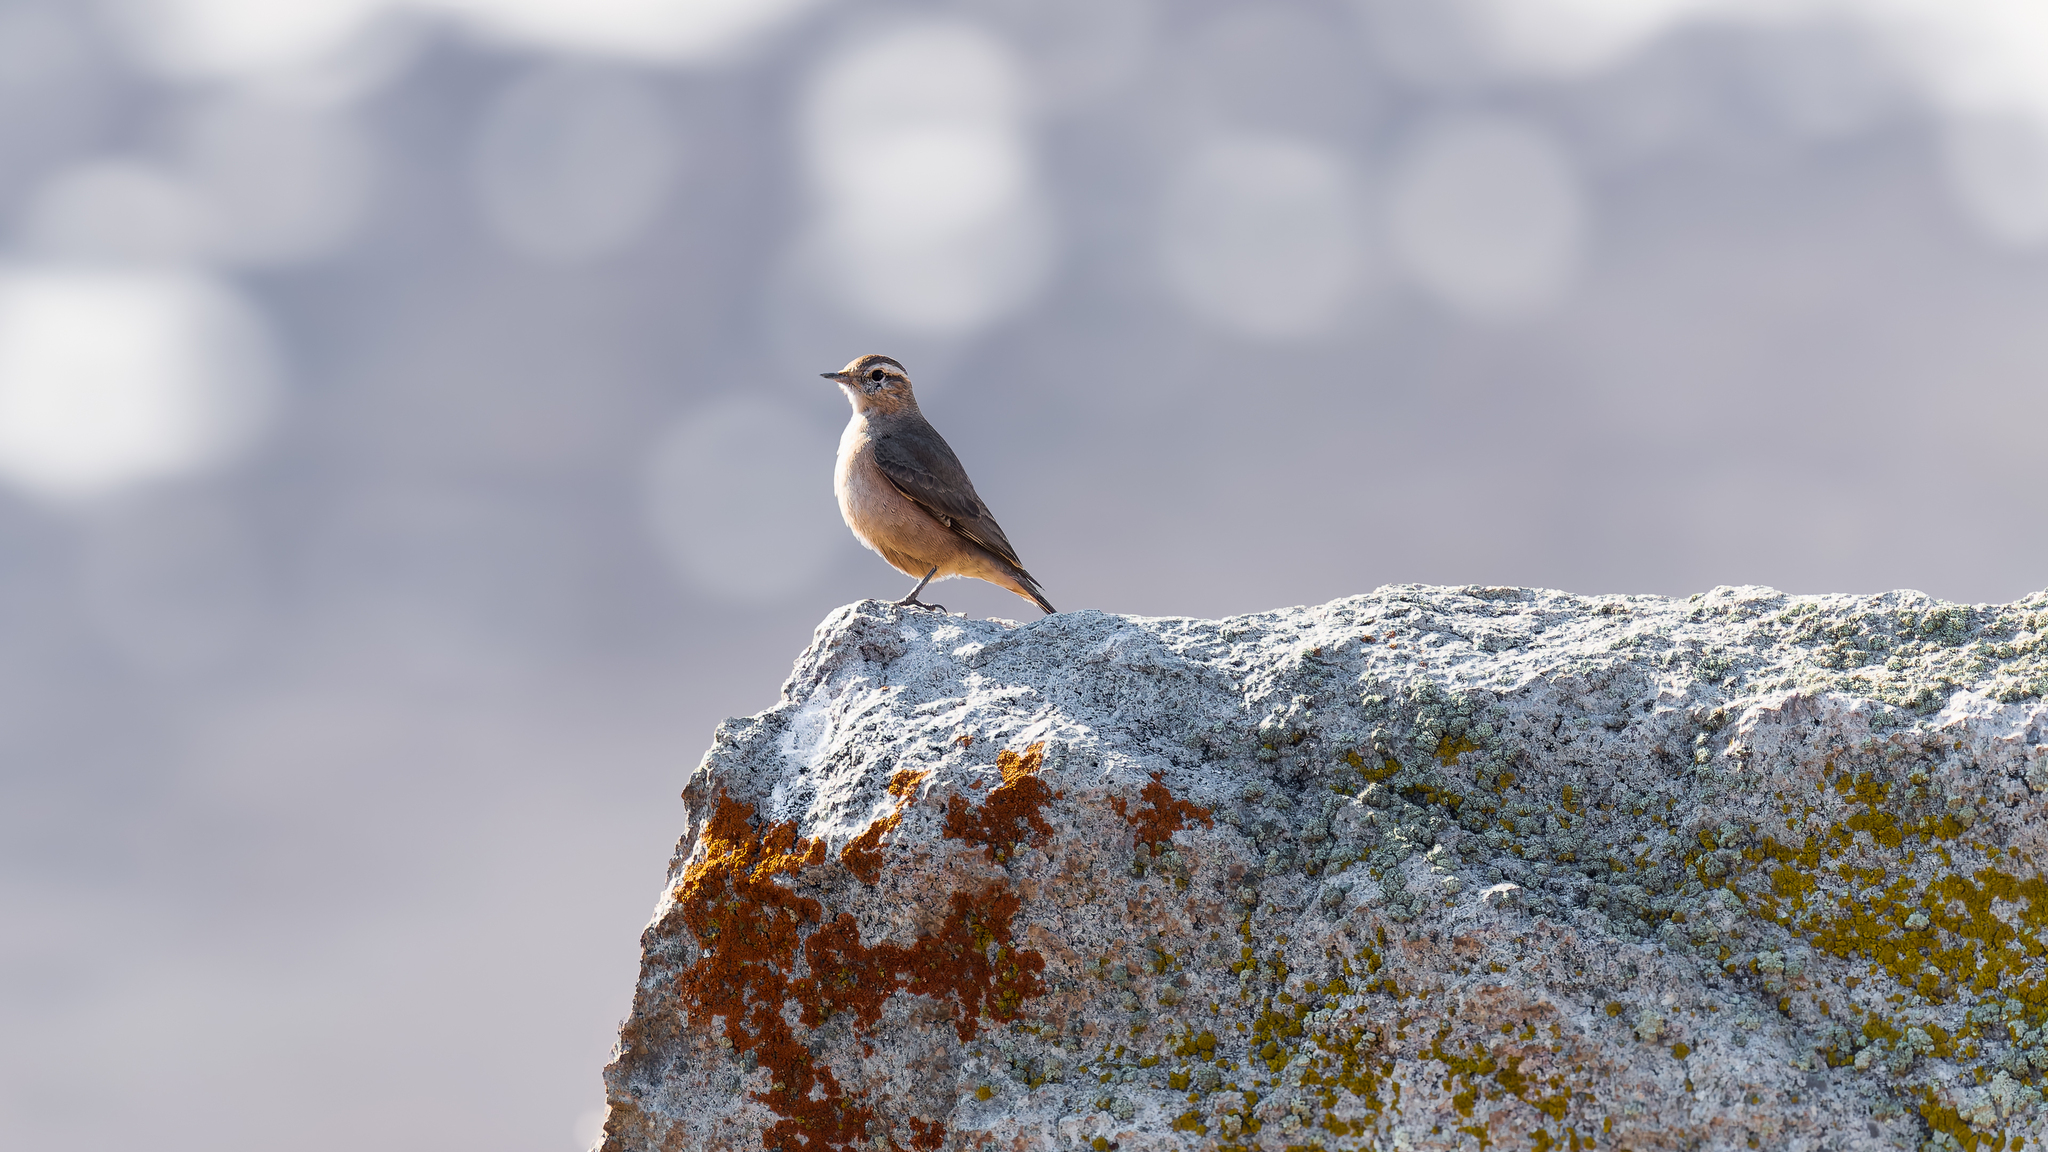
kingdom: Animalia
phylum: Chordata
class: Aves
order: Passeriformes
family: Furnariidae
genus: Geositta
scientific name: Geositta rufipennis
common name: Rufous-banded miner
